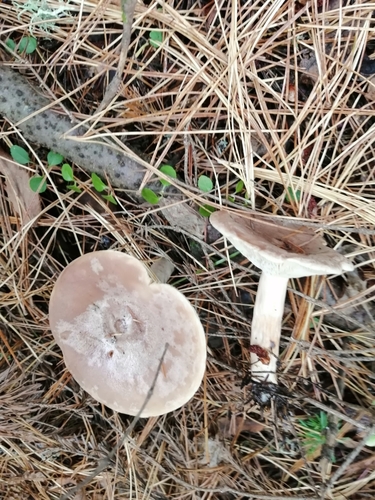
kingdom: Fungi
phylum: Basidiomycota
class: Agaricomycetes
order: Russulales
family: Russulaceae
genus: Lactarius
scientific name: Lactarius
